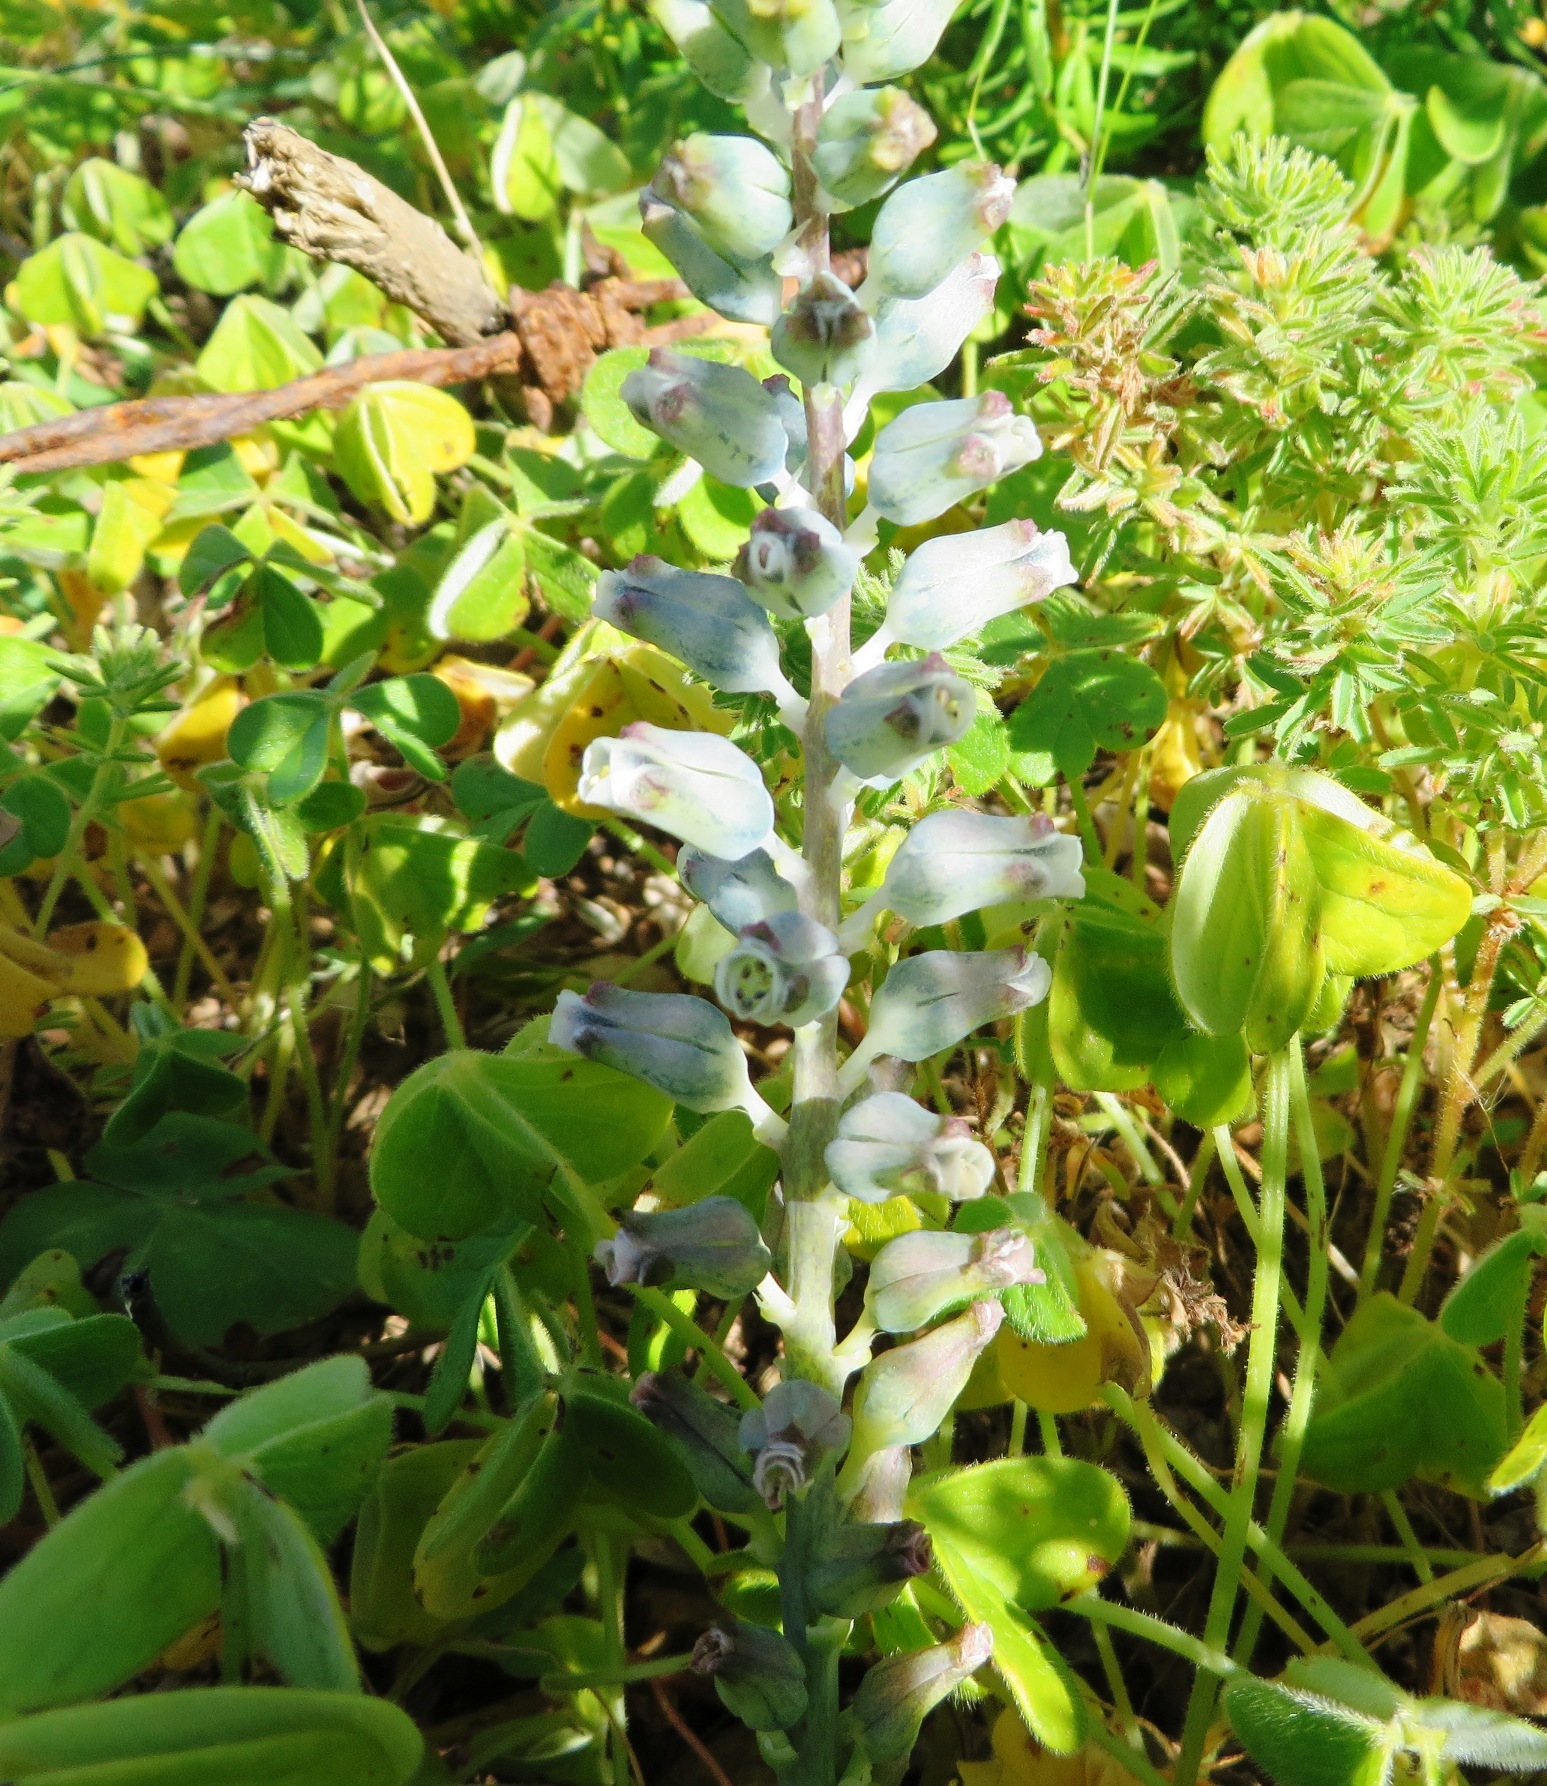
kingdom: Plantae
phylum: Tracheophyta
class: Liliopsida
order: Asparagales
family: Asparagaceae
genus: Lachenalia
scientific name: Lachenalia mediana
